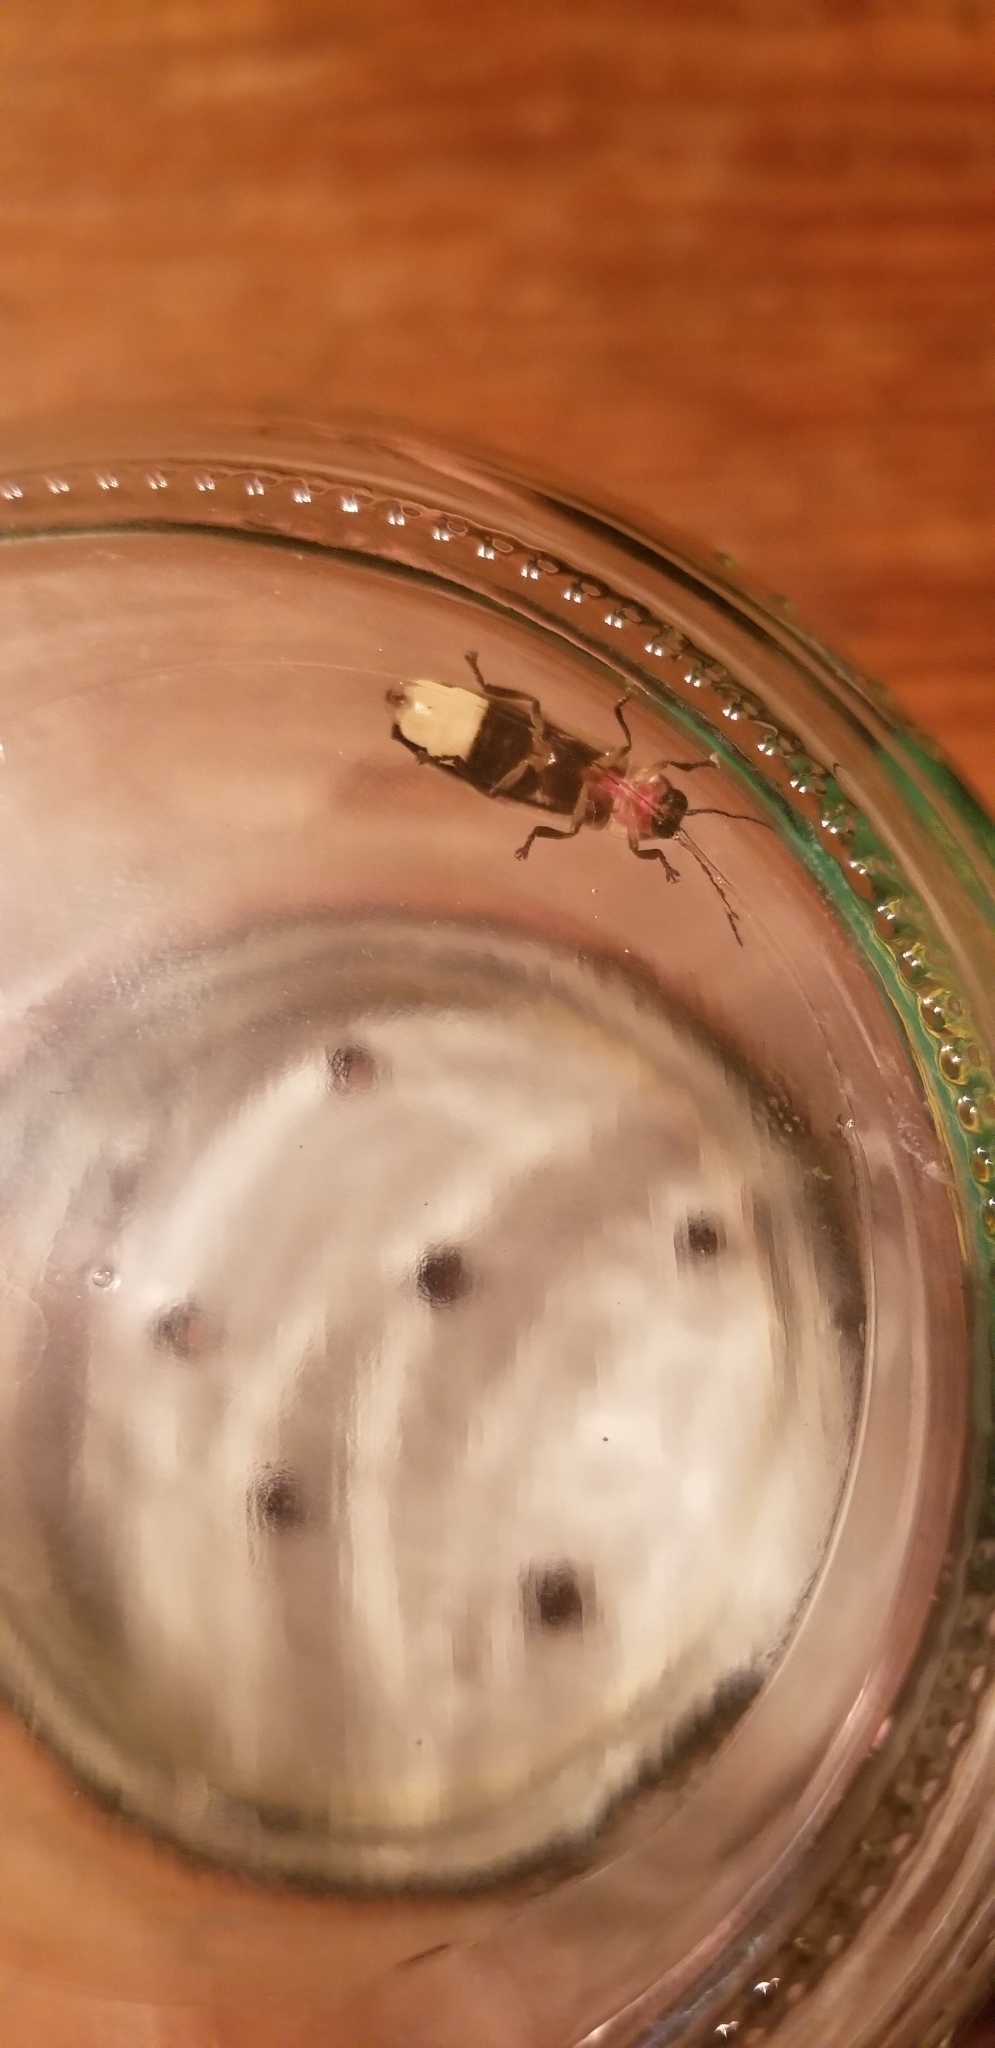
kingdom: Animalia
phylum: Arthropoda
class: Insecta
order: Coleoptera
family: Lampyridae
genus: Photinus
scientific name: Photinus pyralis
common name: Big dipper firefly
